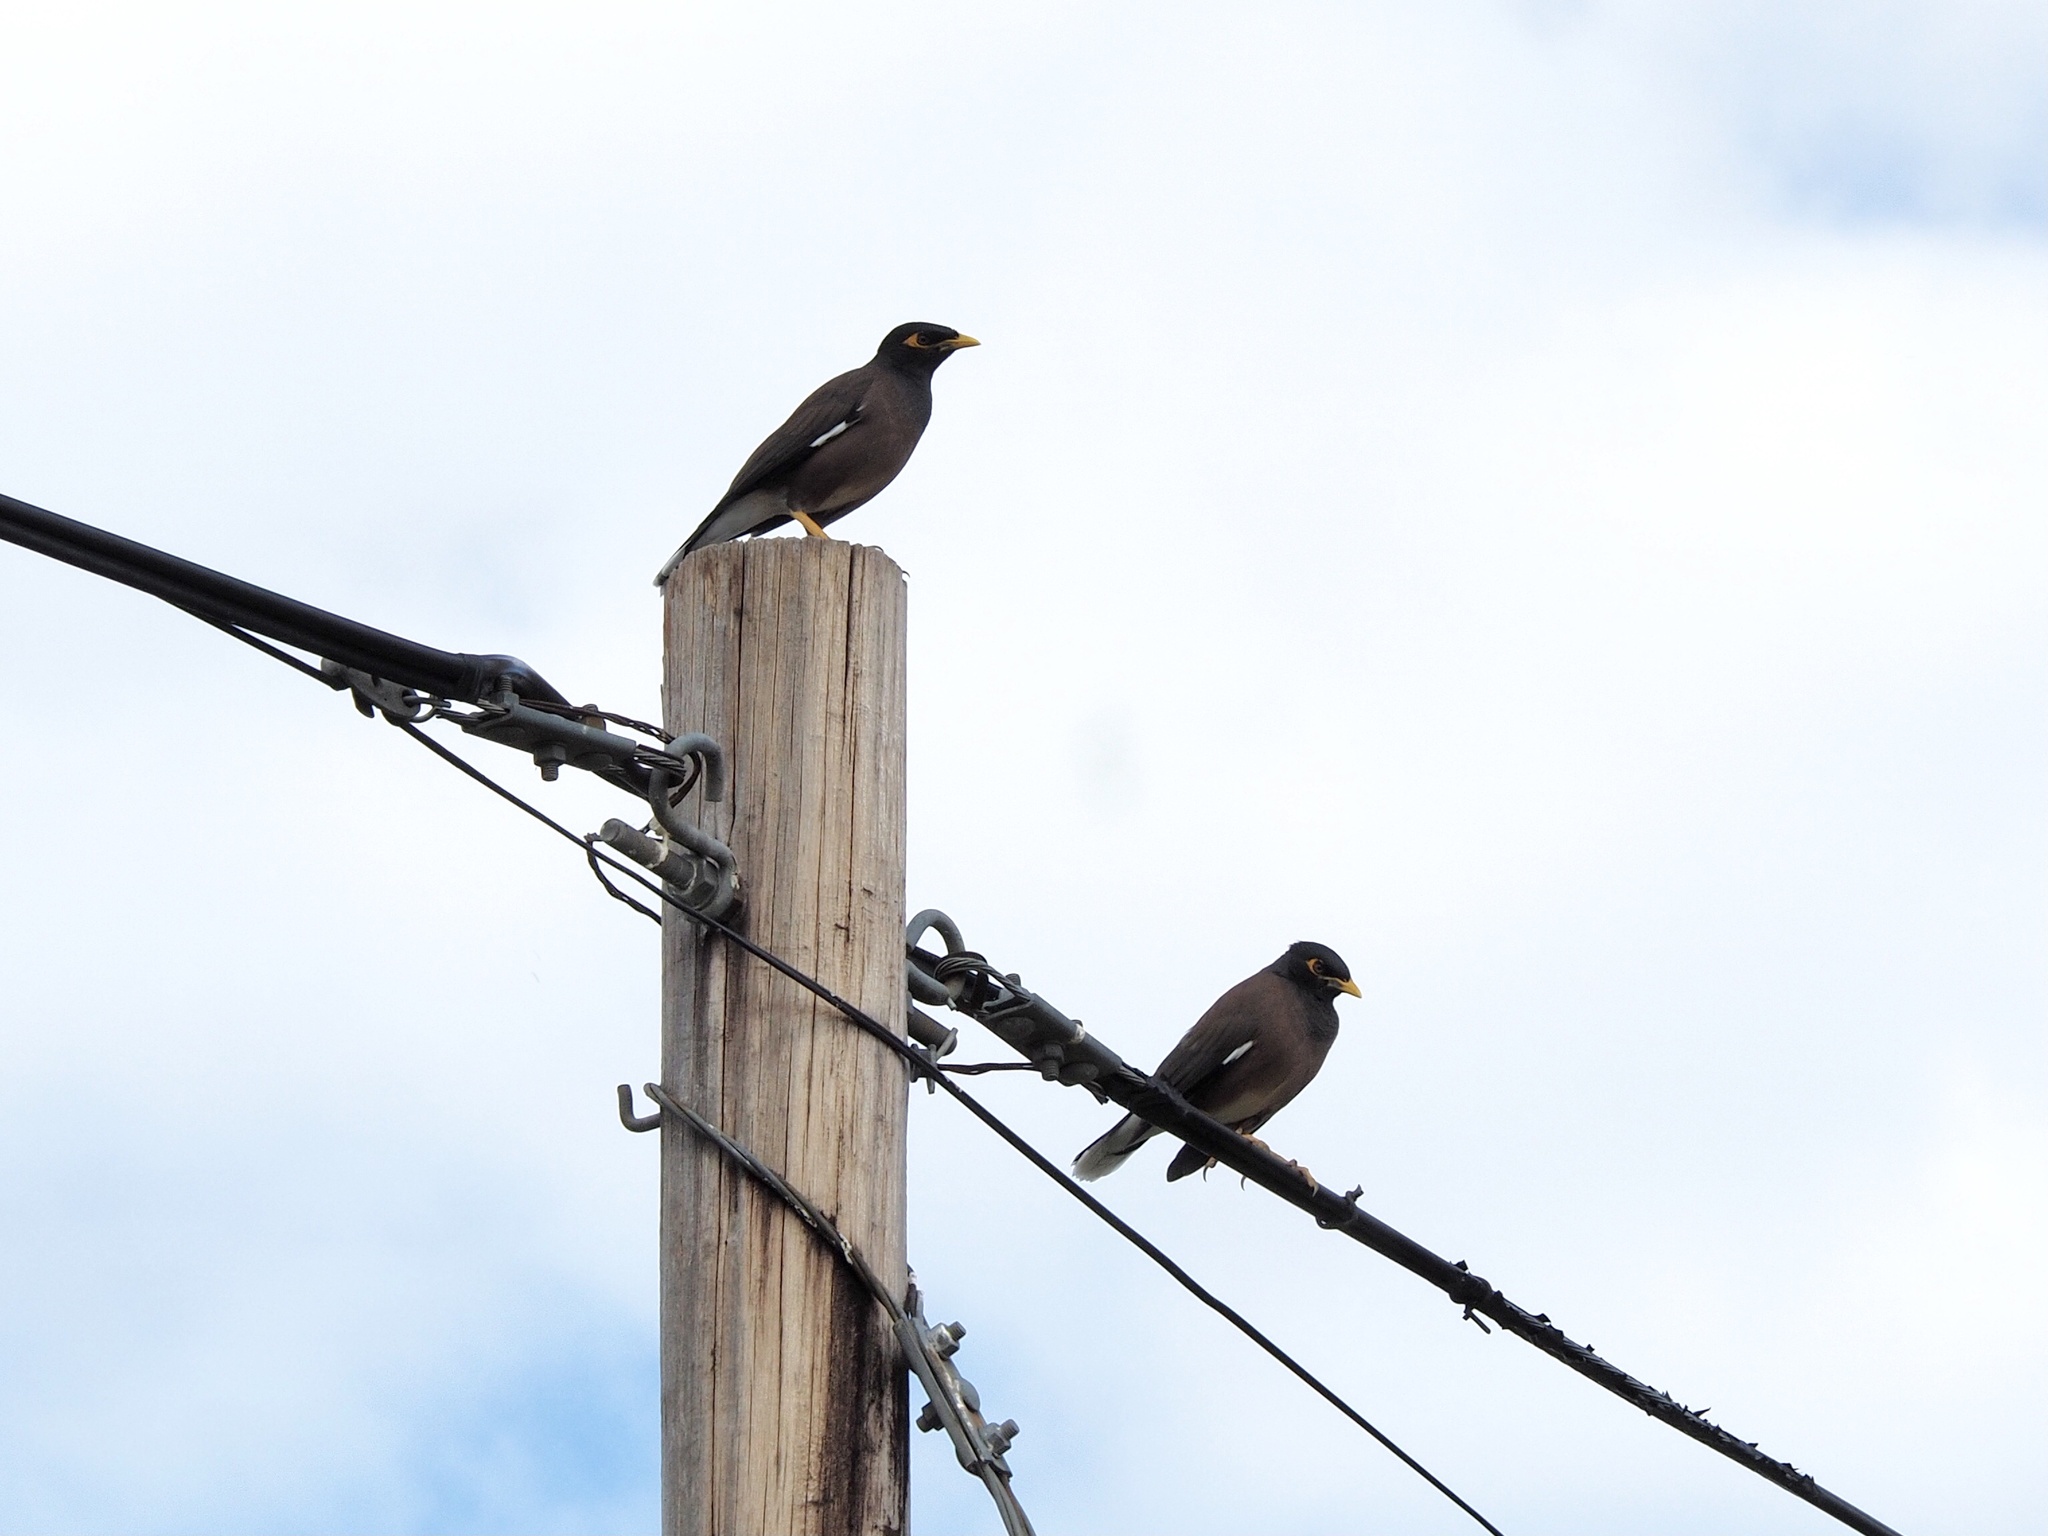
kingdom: Animalia
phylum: Chordata
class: Aves
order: Passeriformes
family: Sturnidae
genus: Acridotheres
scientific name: Acridotheres tristis
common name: Common myna
